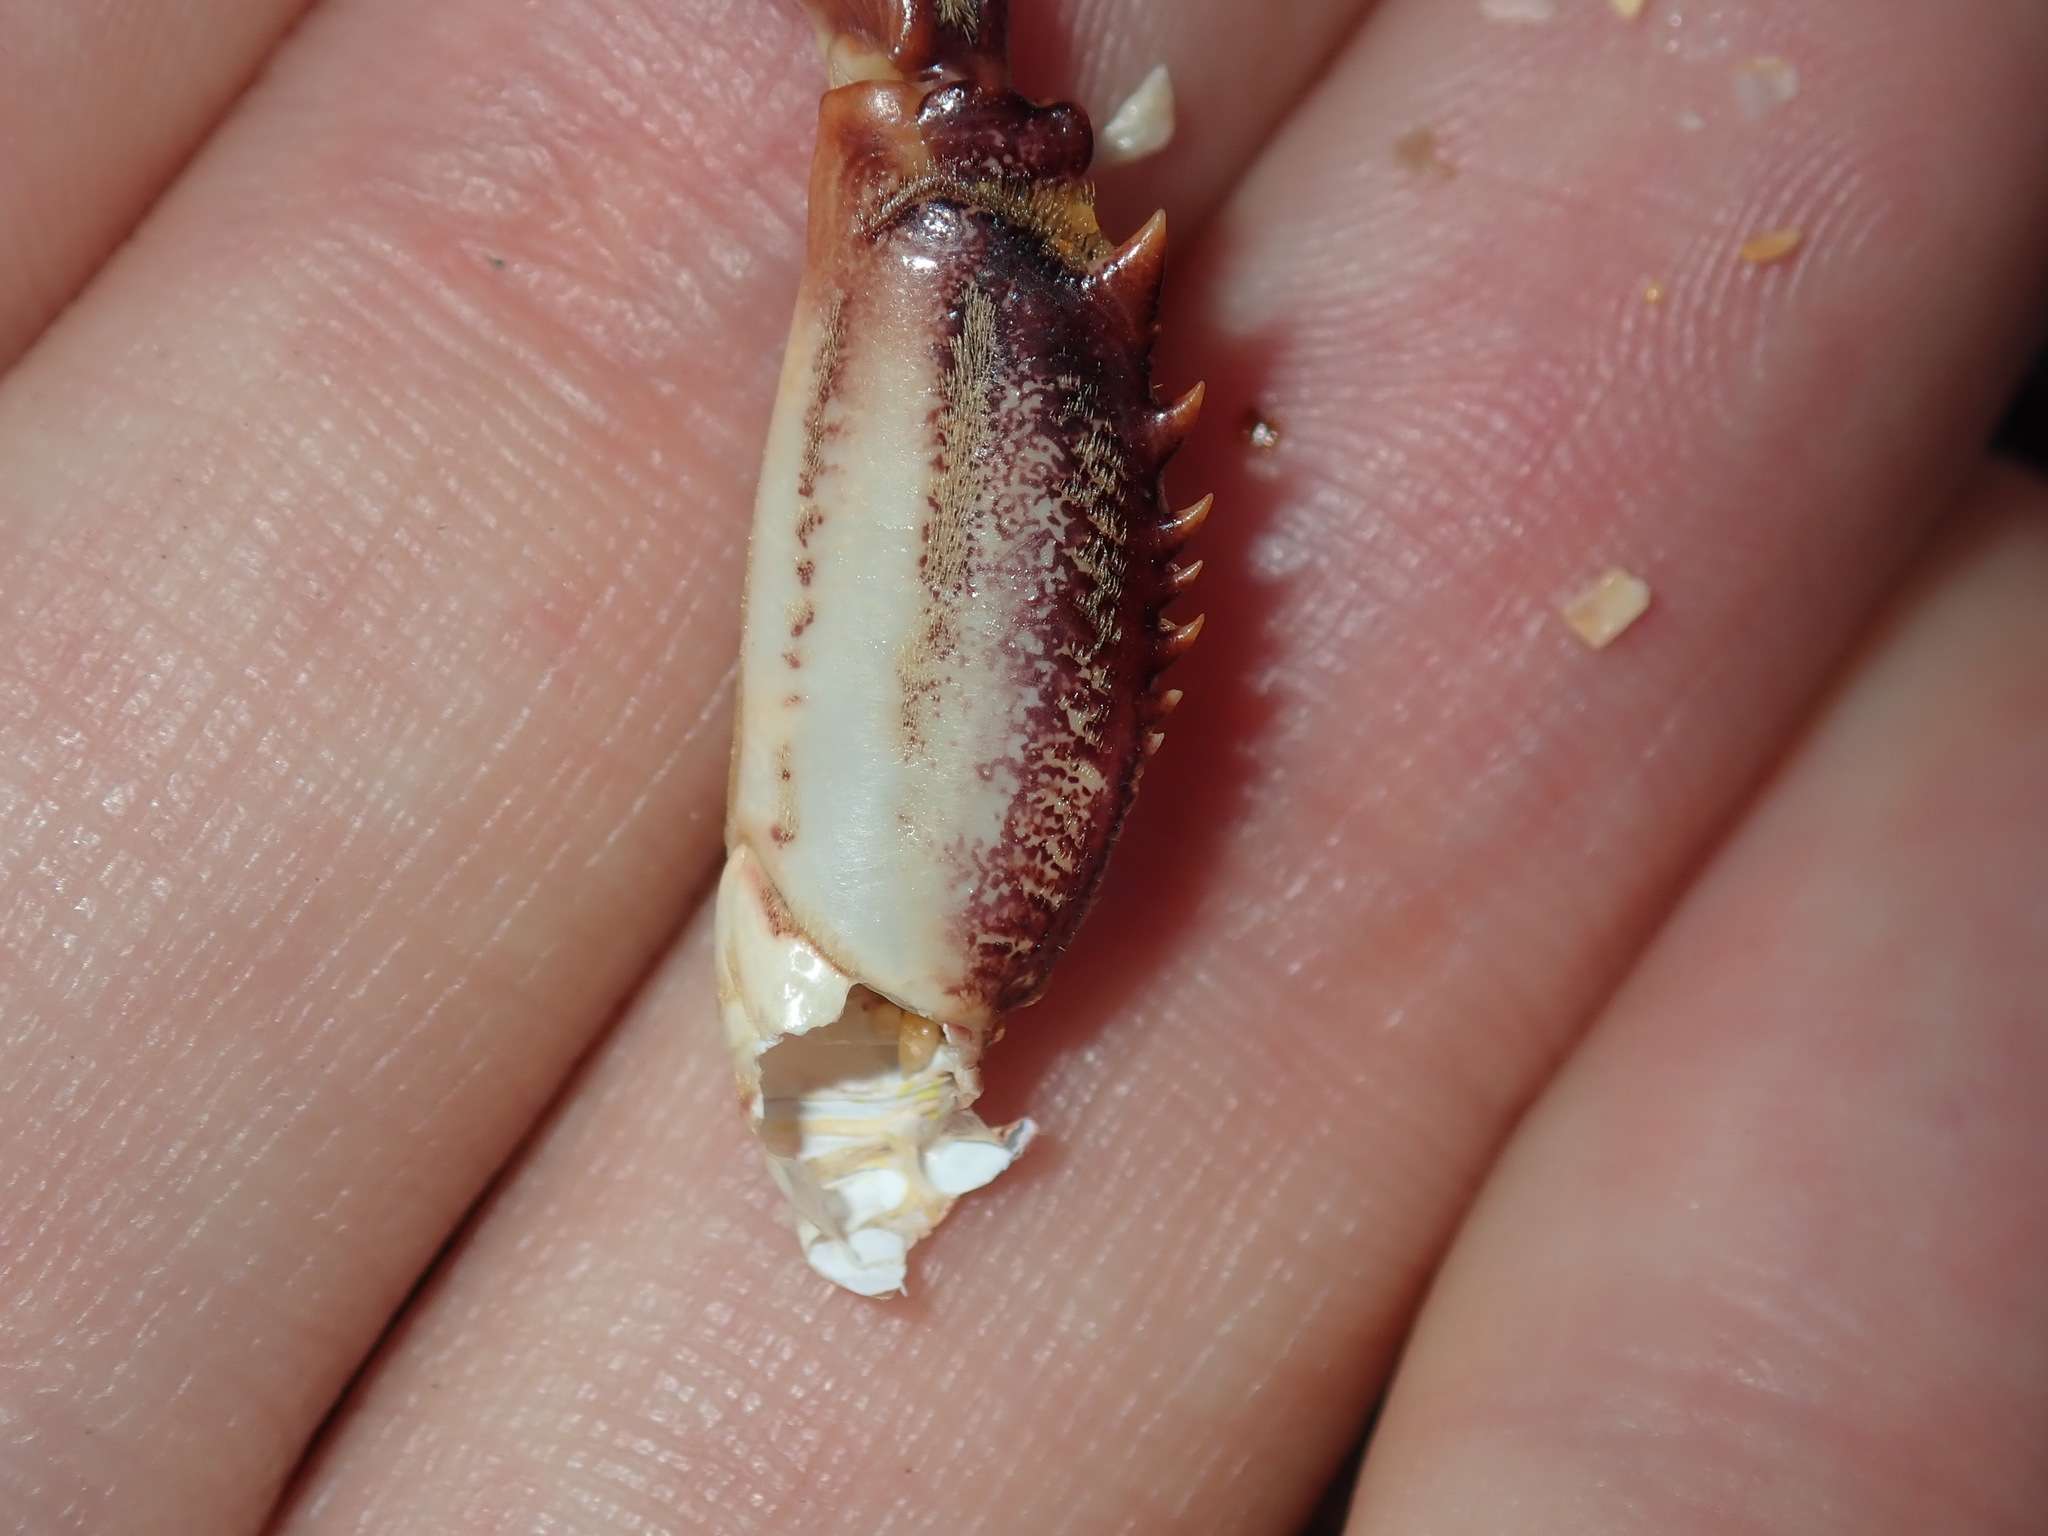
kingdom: Animalia
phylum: Arthropoda
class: Malacostraca
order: Decapoda
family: Plagusiidae
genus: Guinusia
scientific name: Guinusia chabrus
